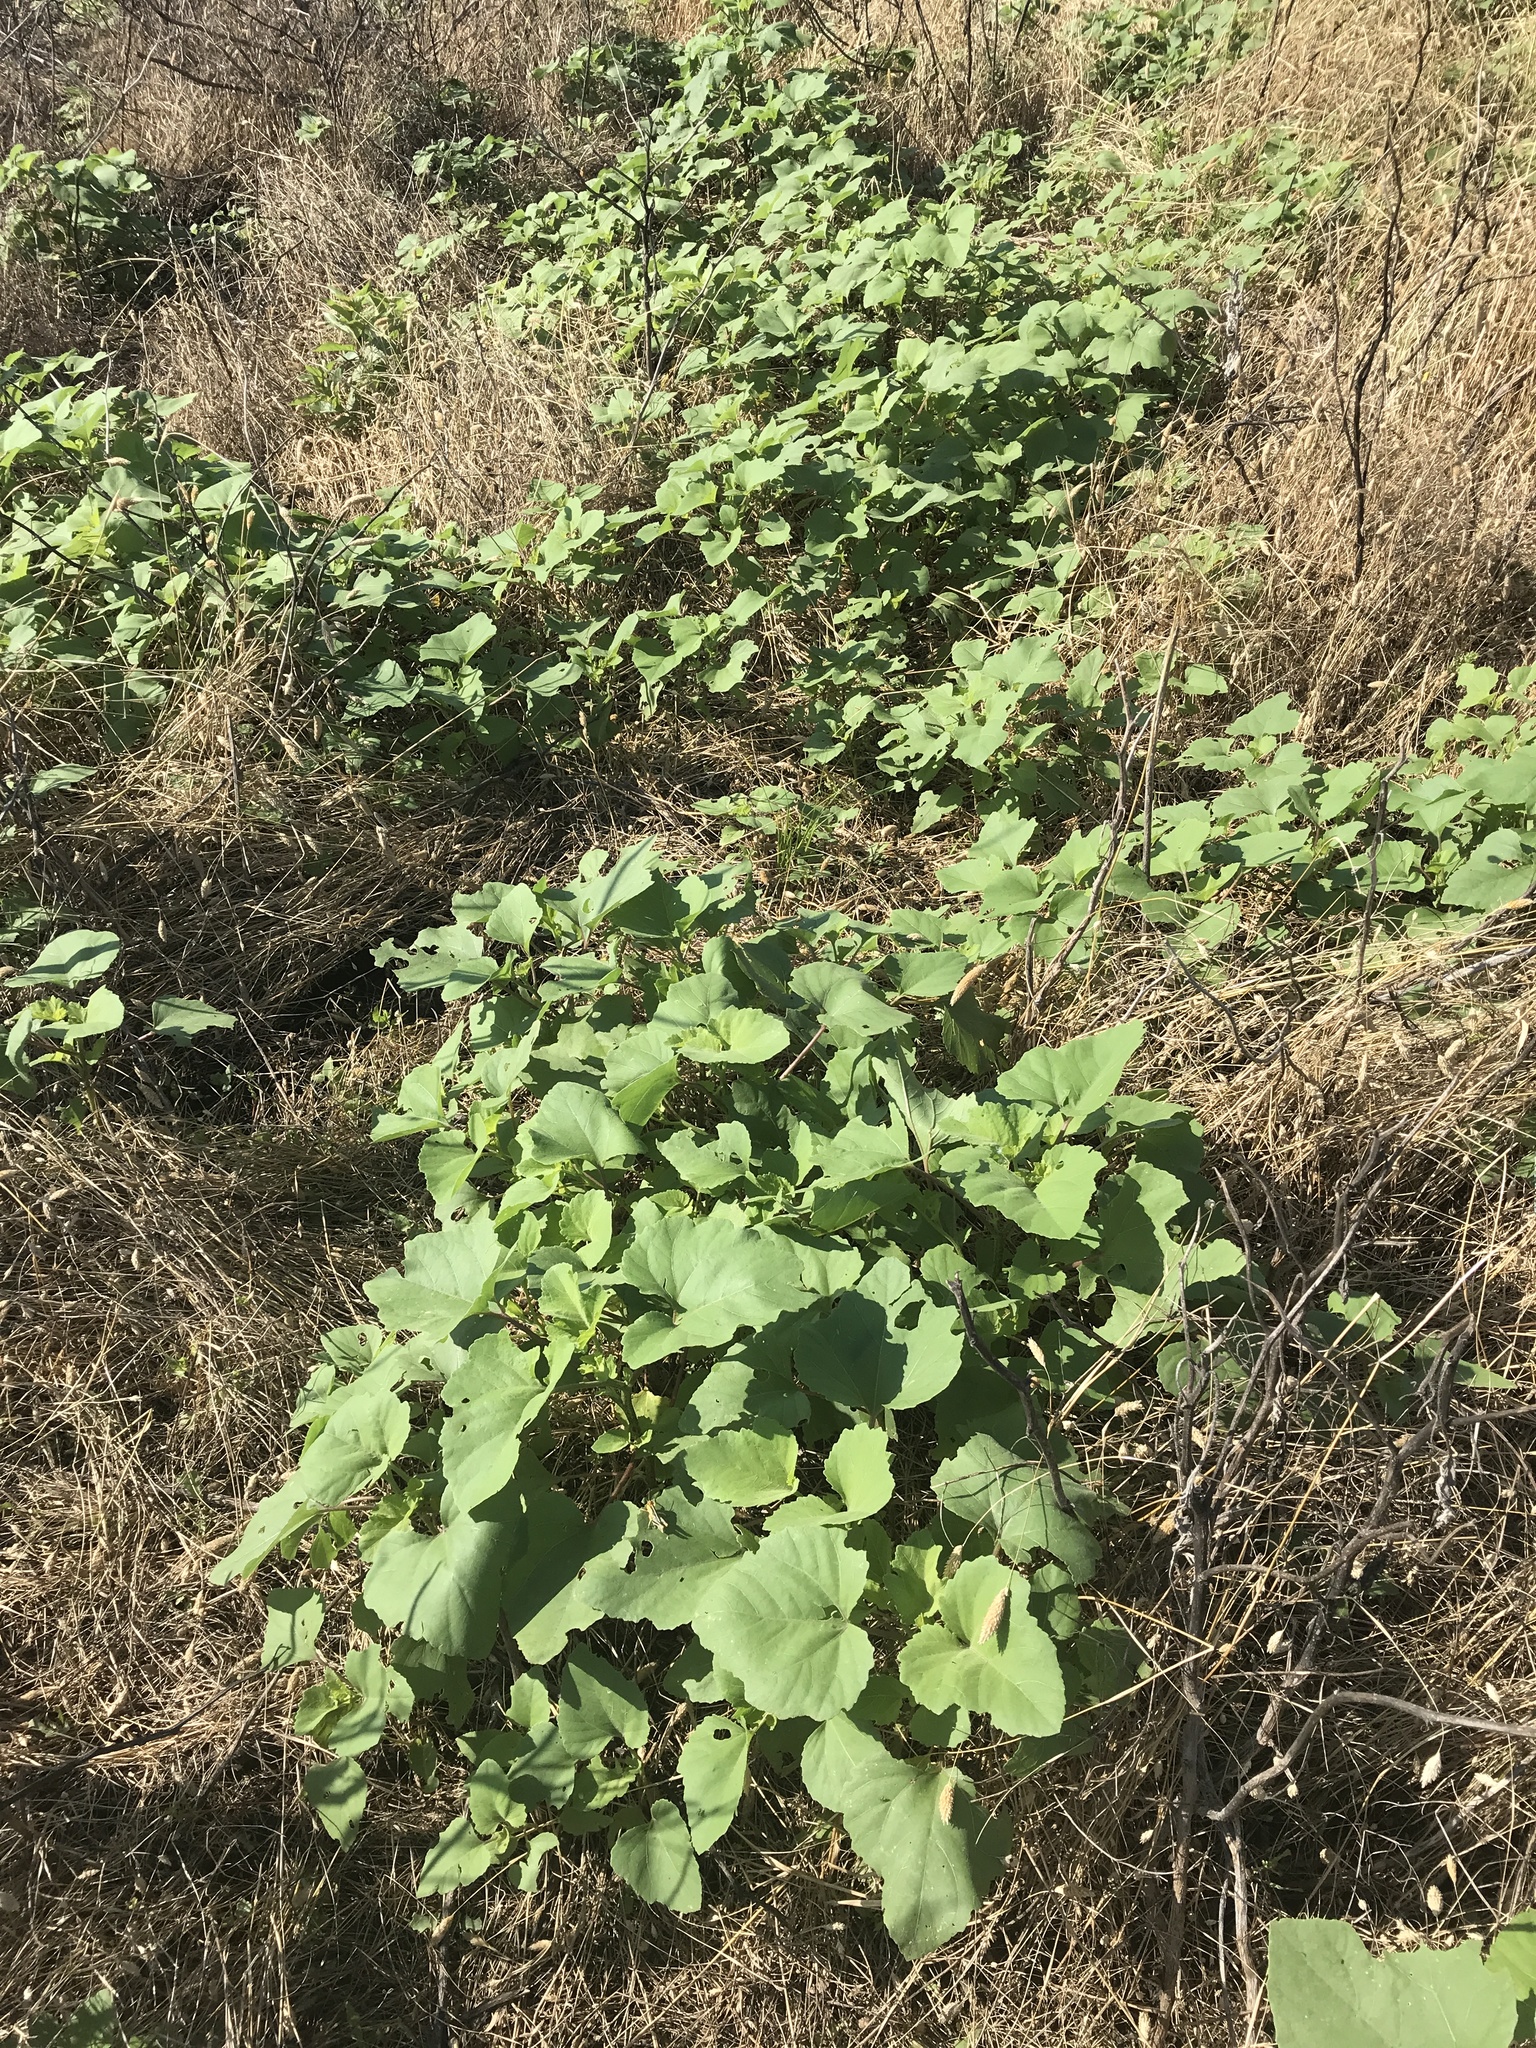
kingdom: Plantae
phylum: Tracheophyta
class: Magnoliopsida
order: Asterales
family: Asteraceae
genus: Xanthium
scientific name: Xanthium strumarium
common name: Rough cocklebur
